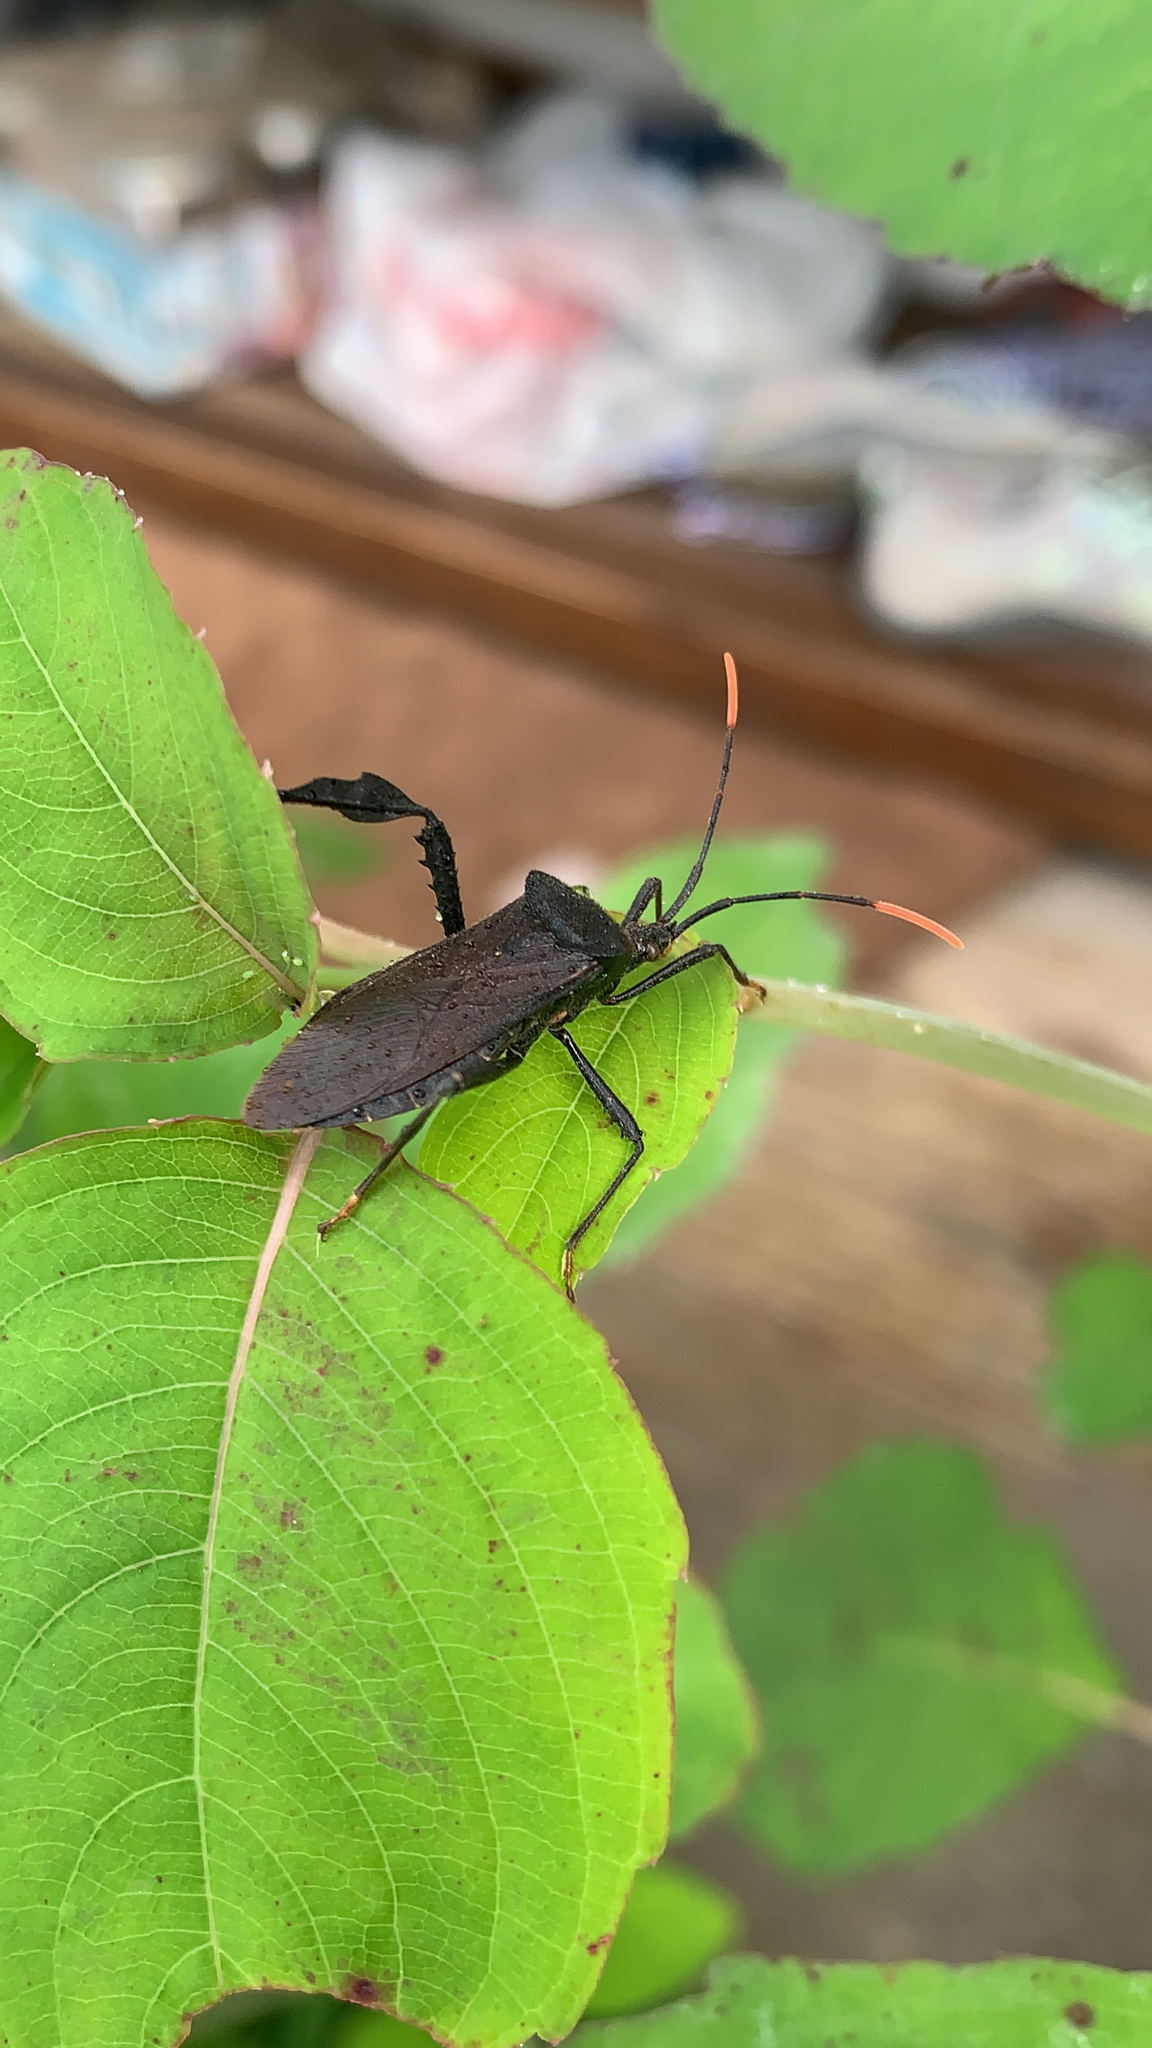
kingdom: Animalia
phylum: Arthropoda
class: Insecta
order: Hemiptera
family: Coreidae
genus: Acanthocephala
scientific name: Acanthocephala terminalis
